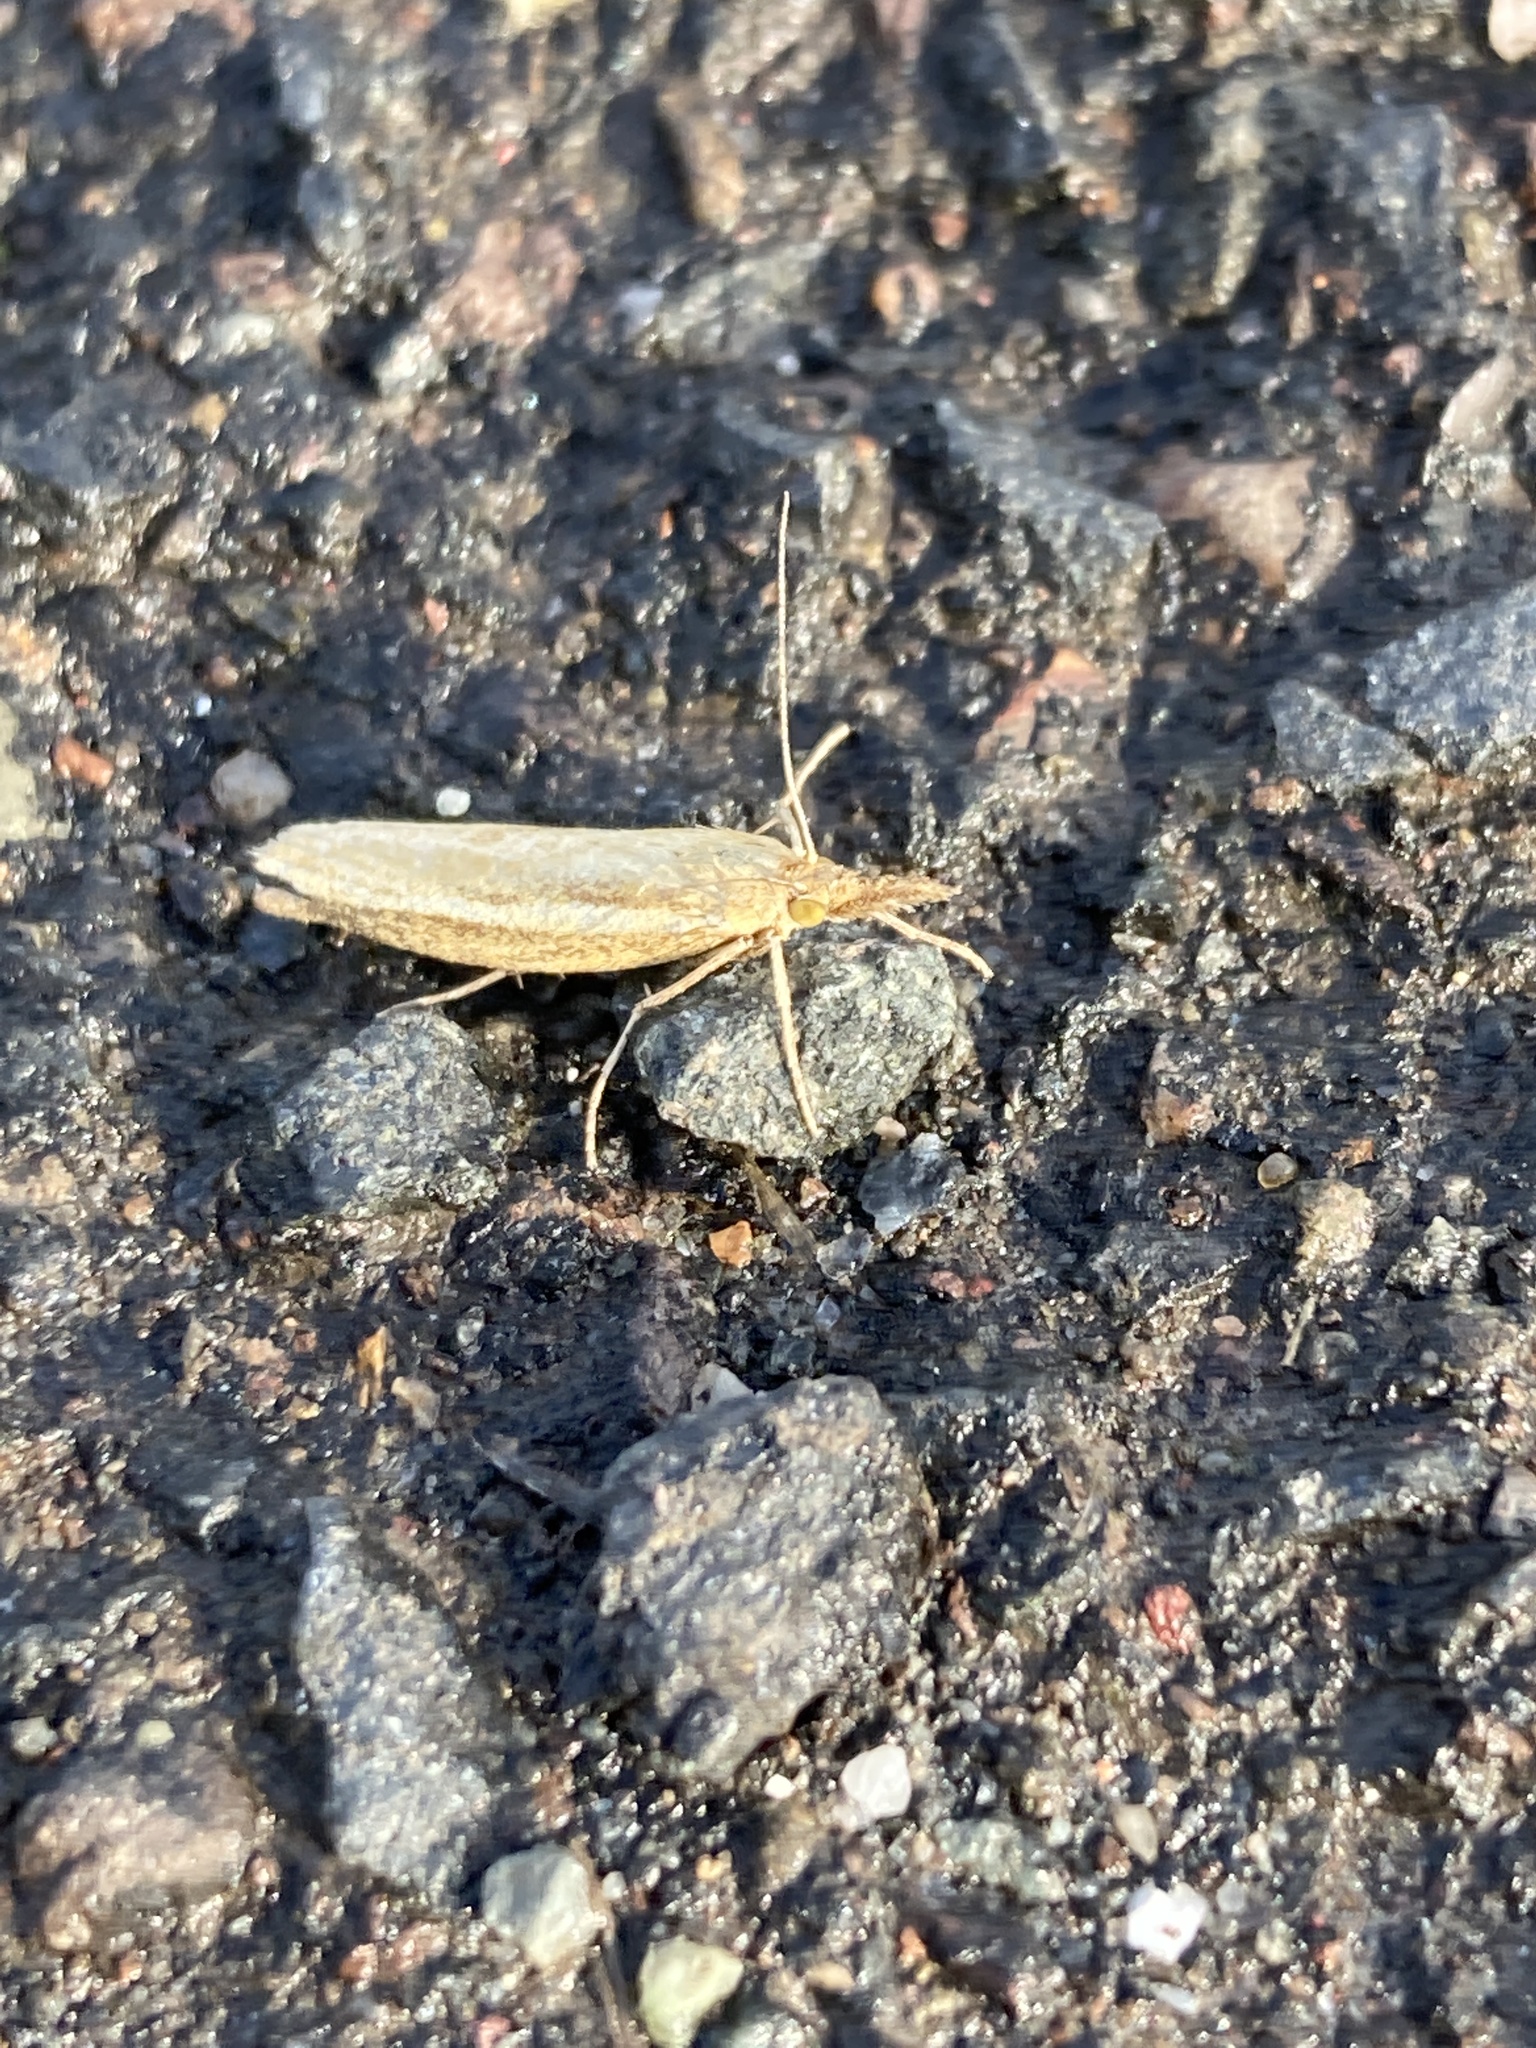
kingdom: Animalia
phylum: Arthropoda
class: Insecta
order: Lepidoptera
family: Crambidae
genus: Agriphila
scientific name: Agriphila tristellus
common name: Common grass-veneer
